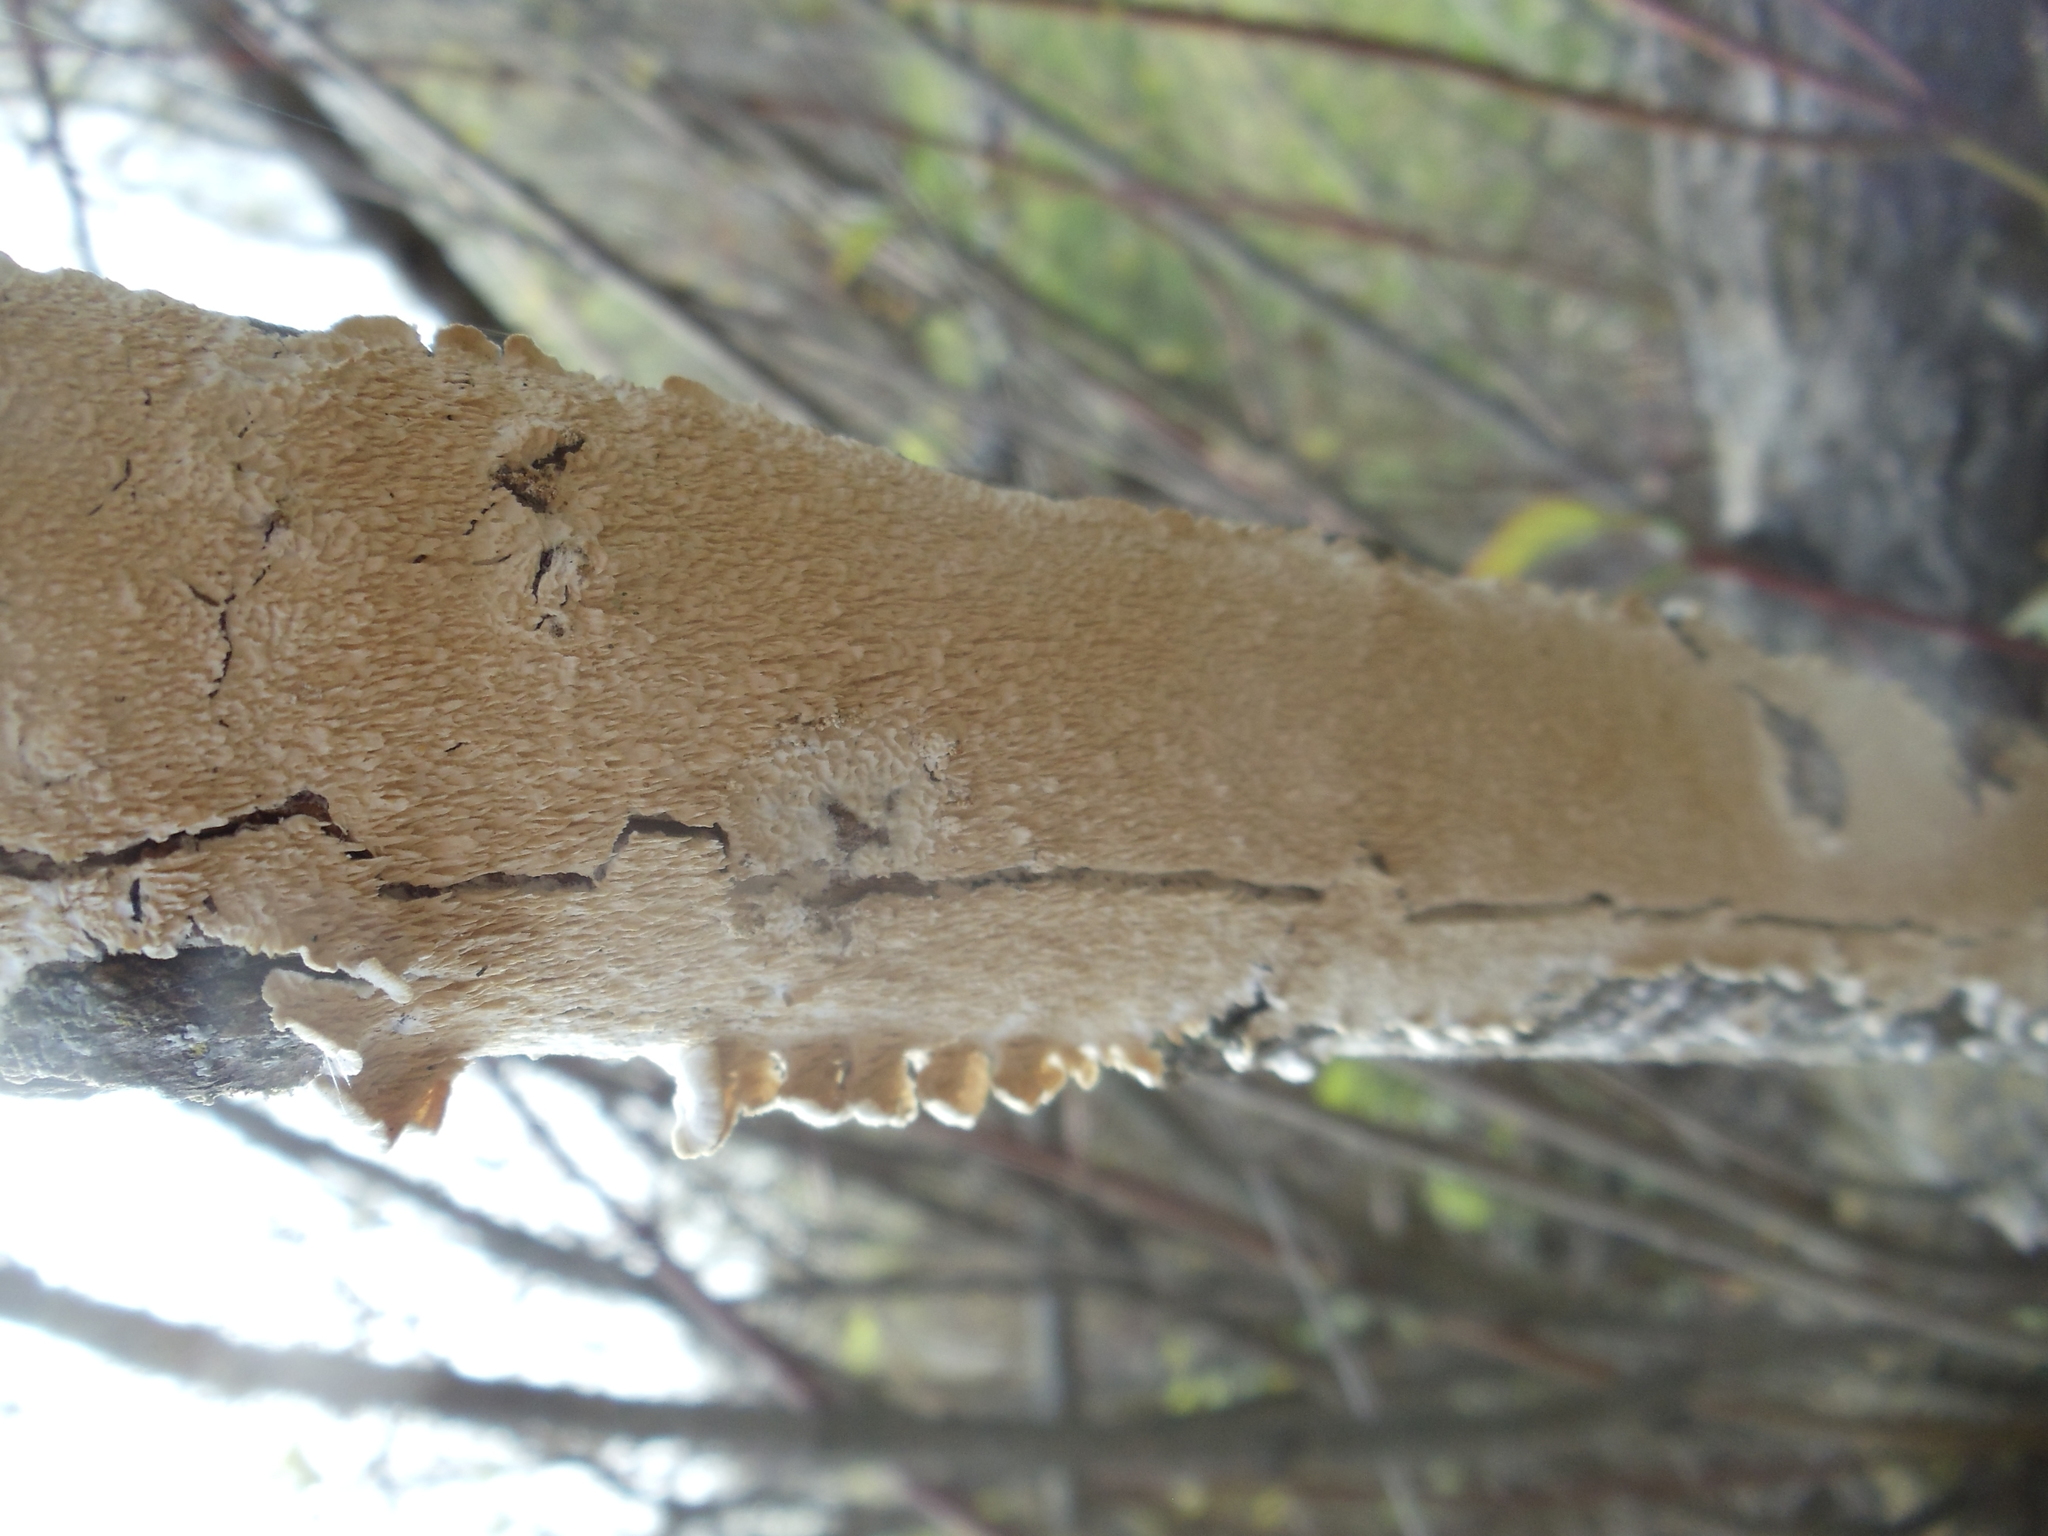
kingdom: Fungi
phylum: Basidiomycota
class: Agaricomycetes
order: Polyporales
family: Irpicaceae
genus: Irpex
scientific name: Irpex lacteus
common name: Milk-white toothed polypore
